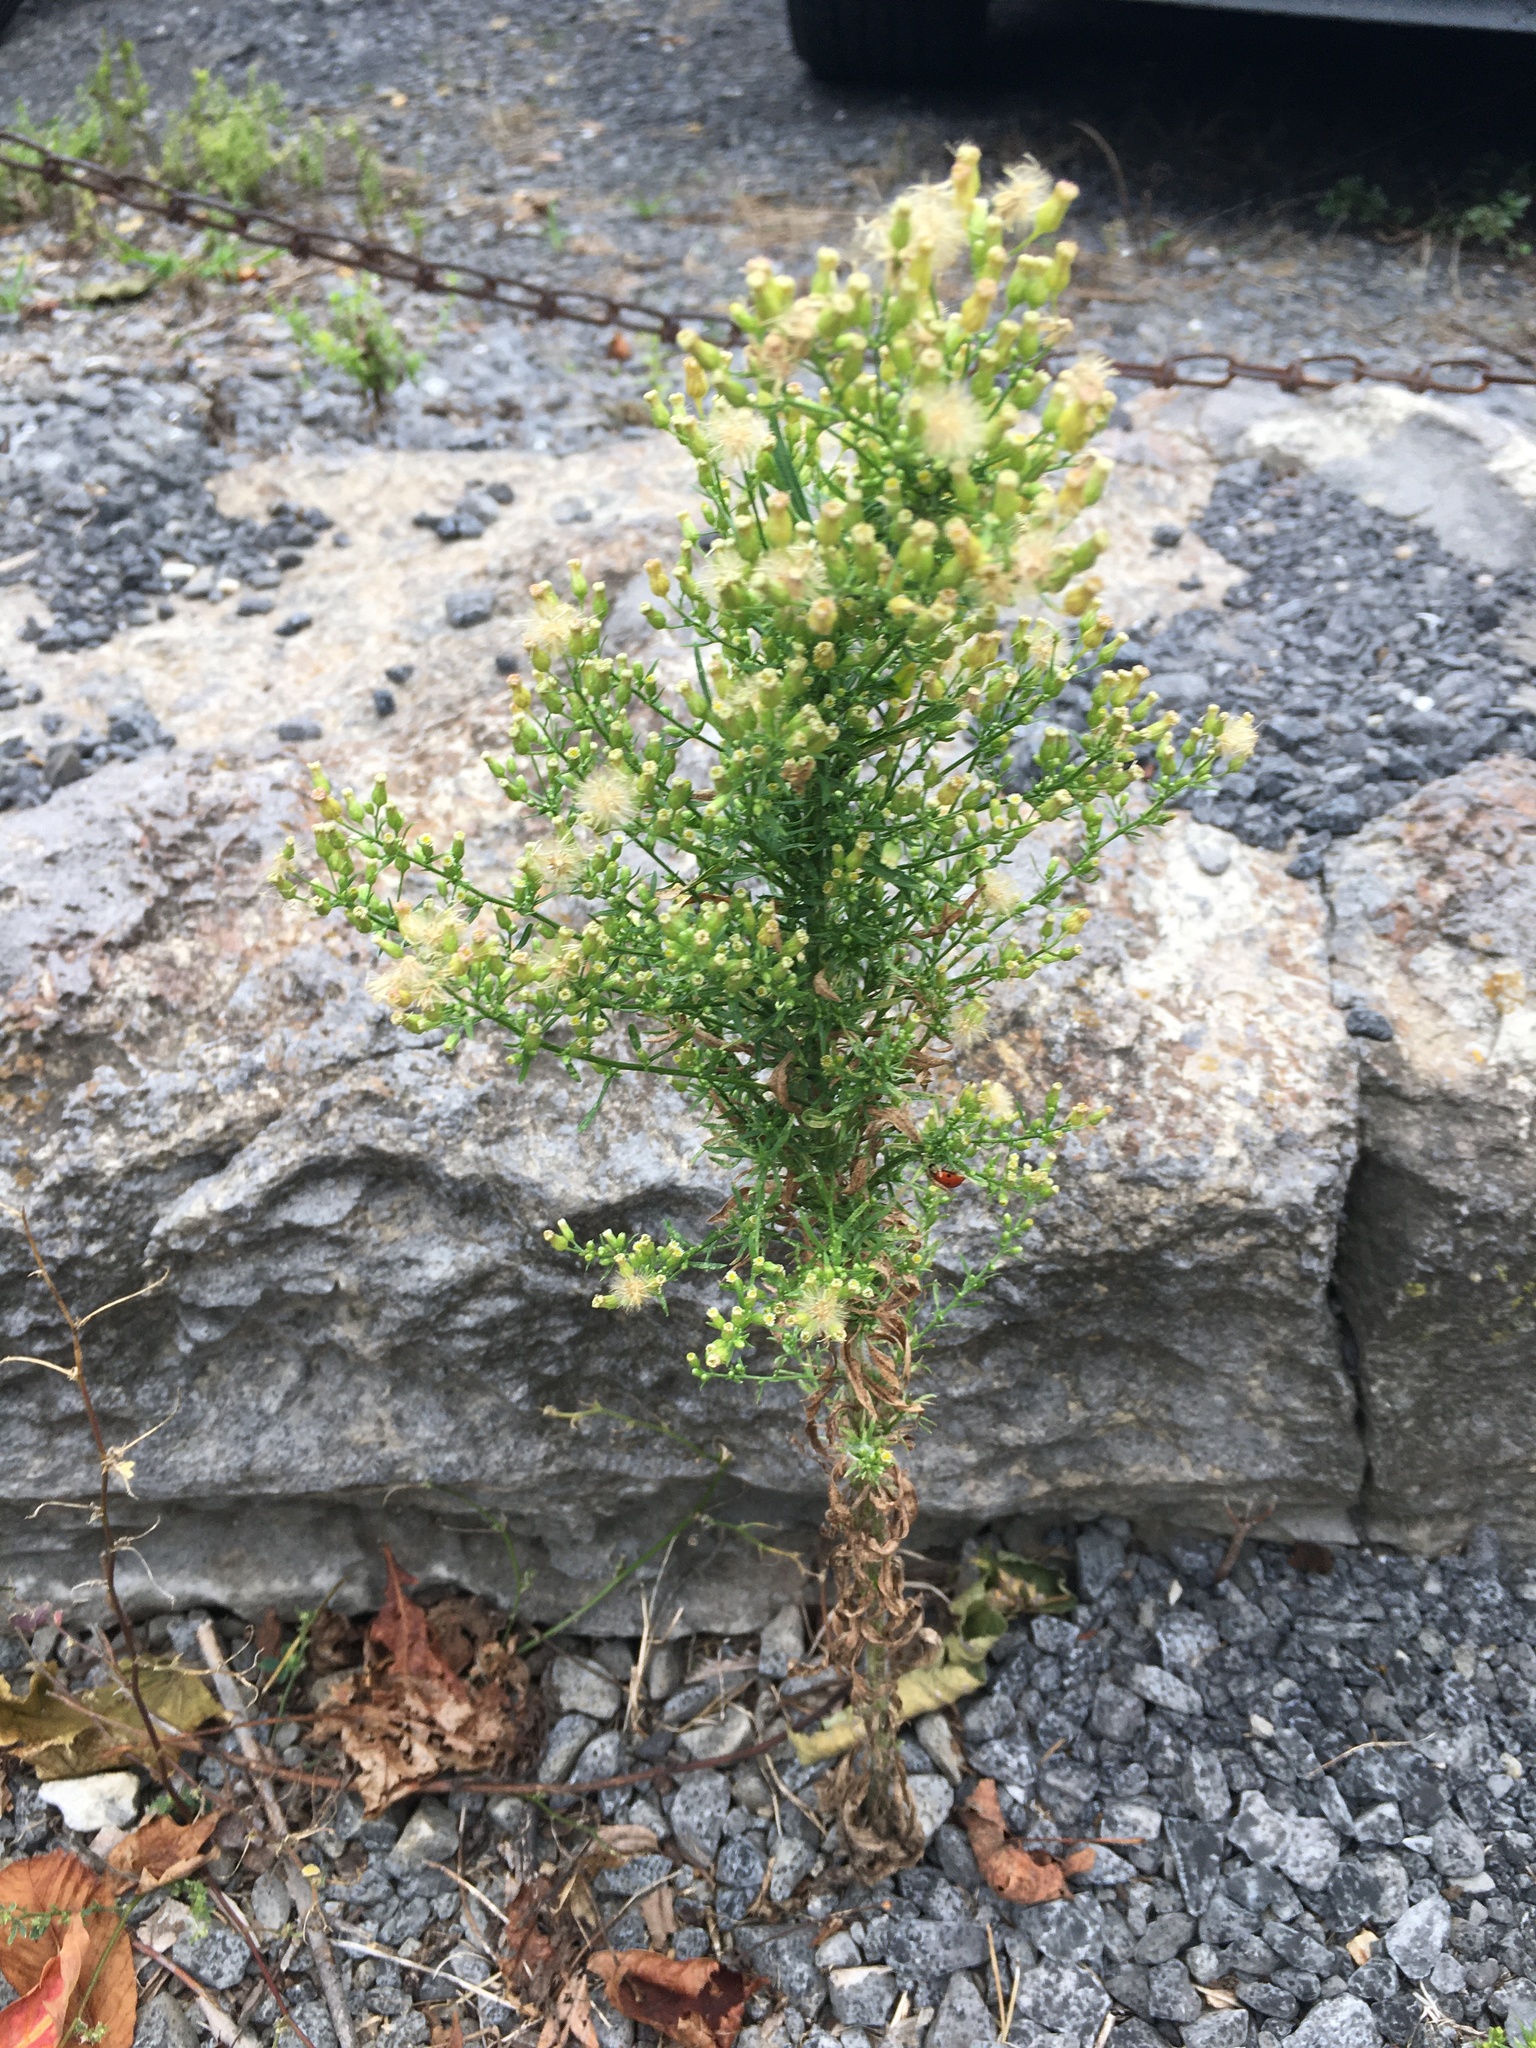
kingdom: Plantae
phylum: Tracheophyta
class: Magnoliopsida
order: Asterales
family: Asteraceae
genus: Erigeron
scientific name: Erigeron canadensis
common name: Canadian fleabane
